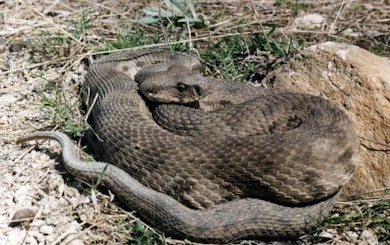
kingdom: Animalia
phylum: Chordata
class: Squamata
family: Viperidae
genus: Macrovipera
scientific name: Macrovipera lebetinus
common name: Levantine viper
